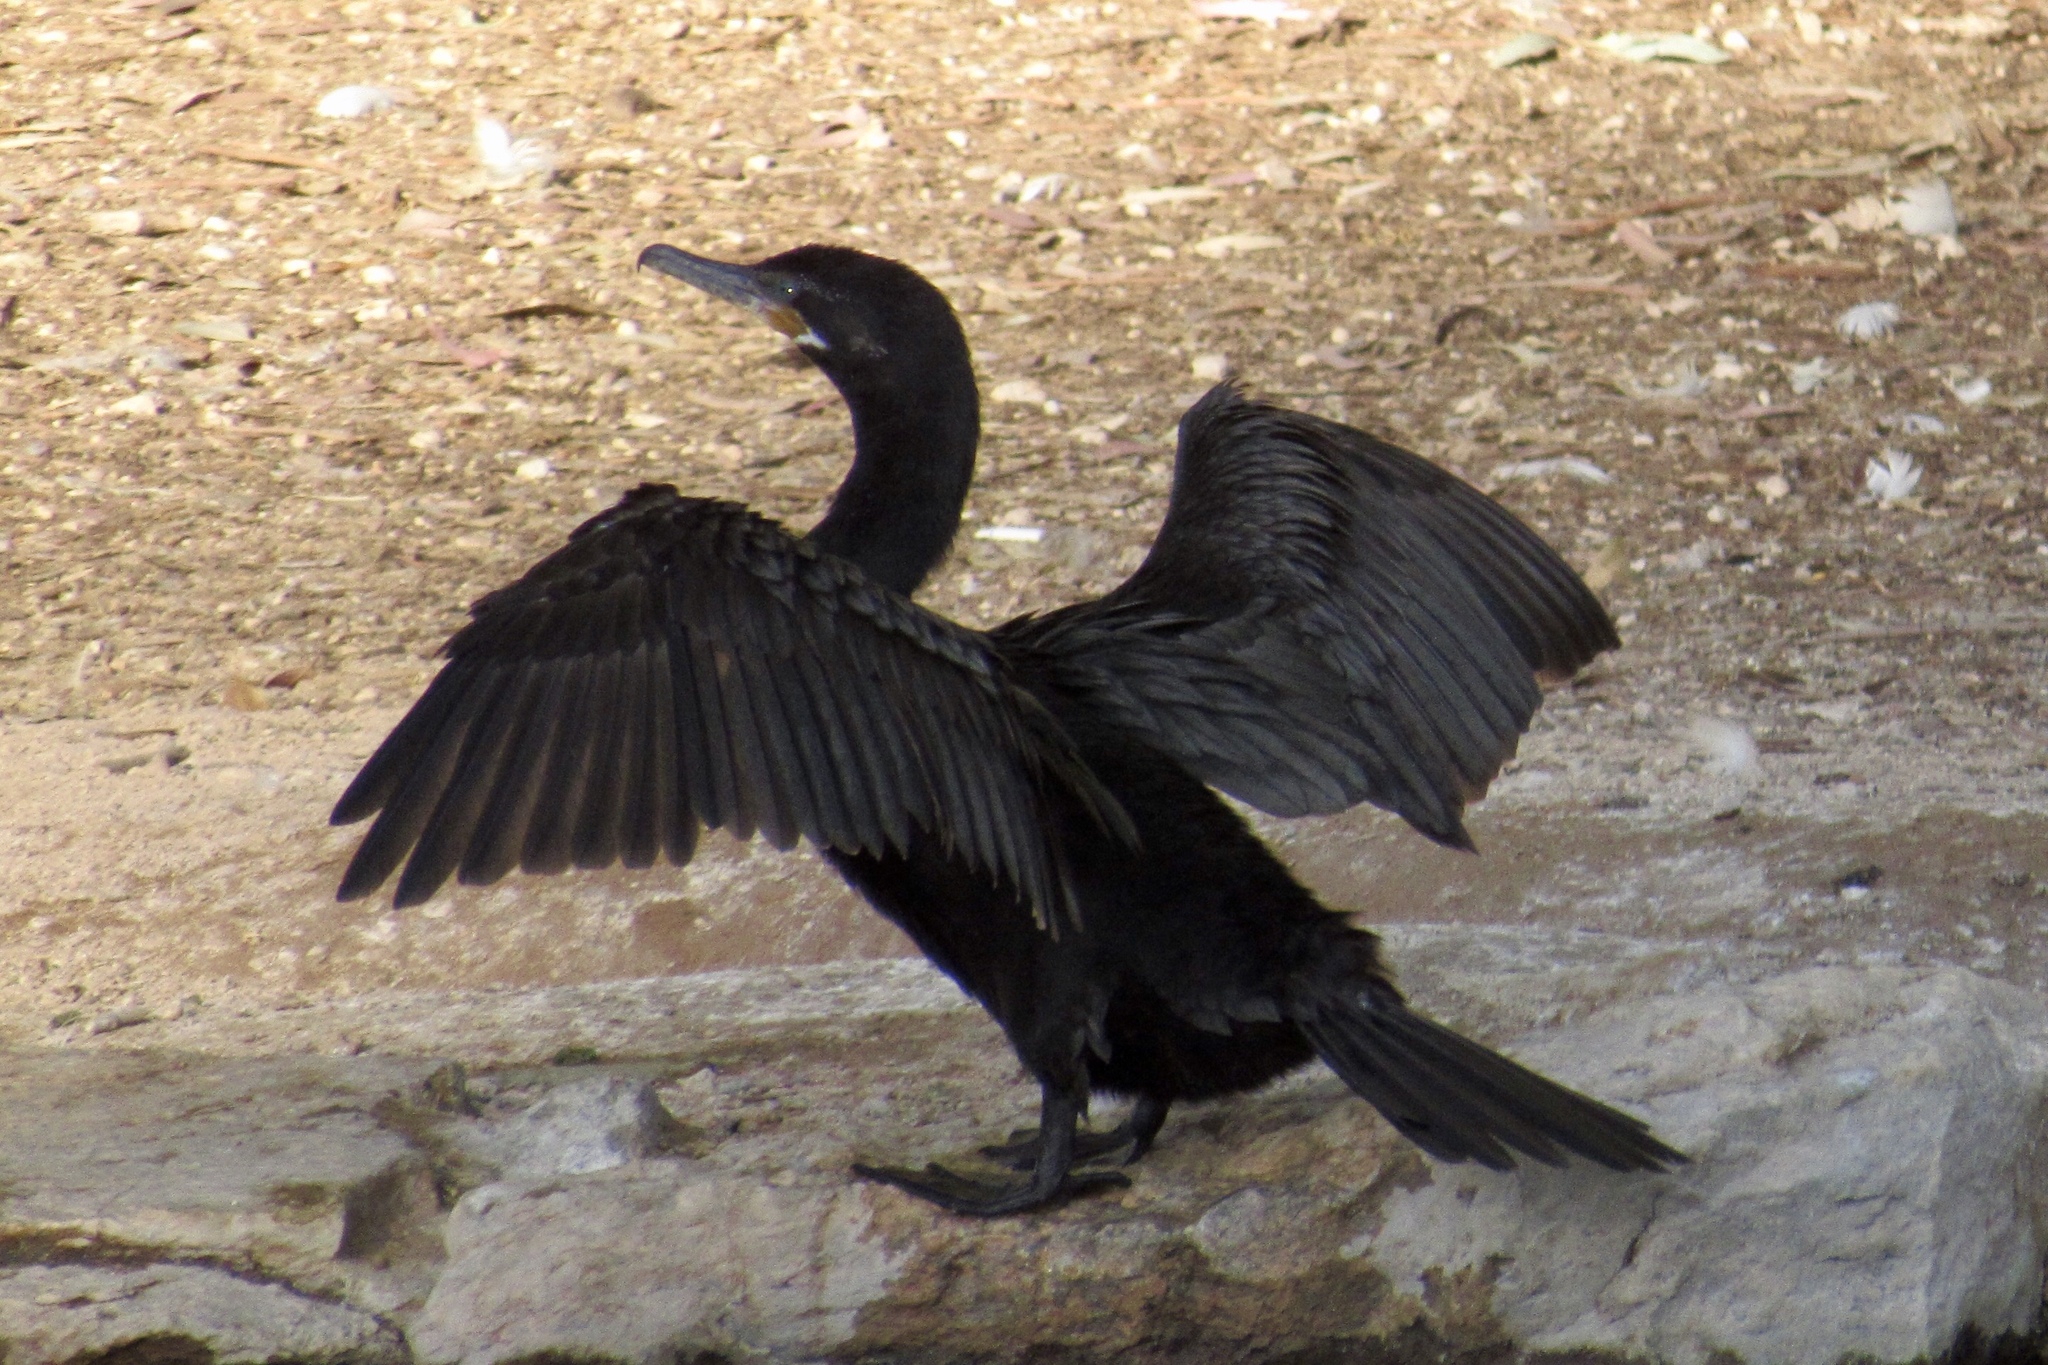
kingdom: Animalia
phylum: Chordata
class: Aves
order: Suliformes
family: Phalacrocoracidae
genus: Phalacrocorax
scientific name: Phalacrocorax brasilianus
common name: Neotropic cormorant
